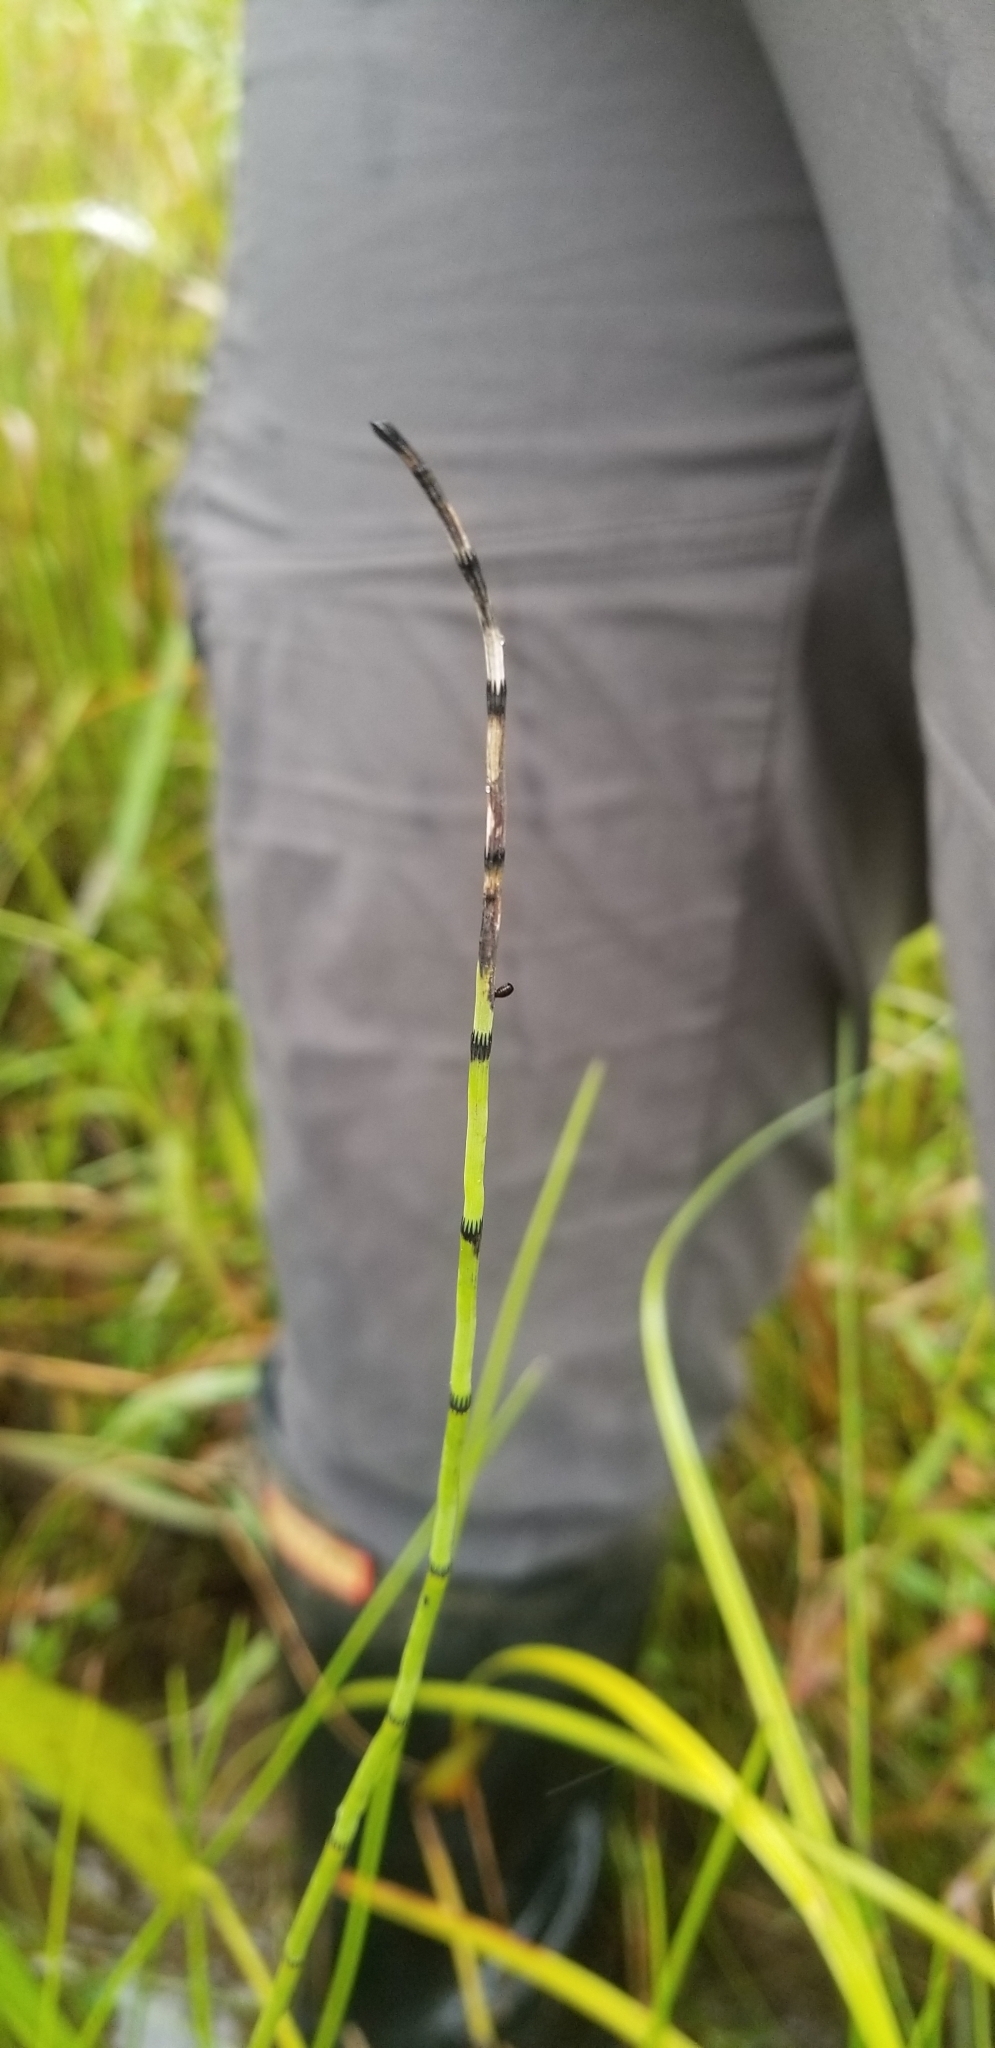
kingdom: Plantae
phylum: Tracheophyta
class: Polypodiopsida
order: Equisetales
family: Equisetaceae
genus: Equisetum
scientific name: Equisetum fluviatile
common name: Water horsetail
